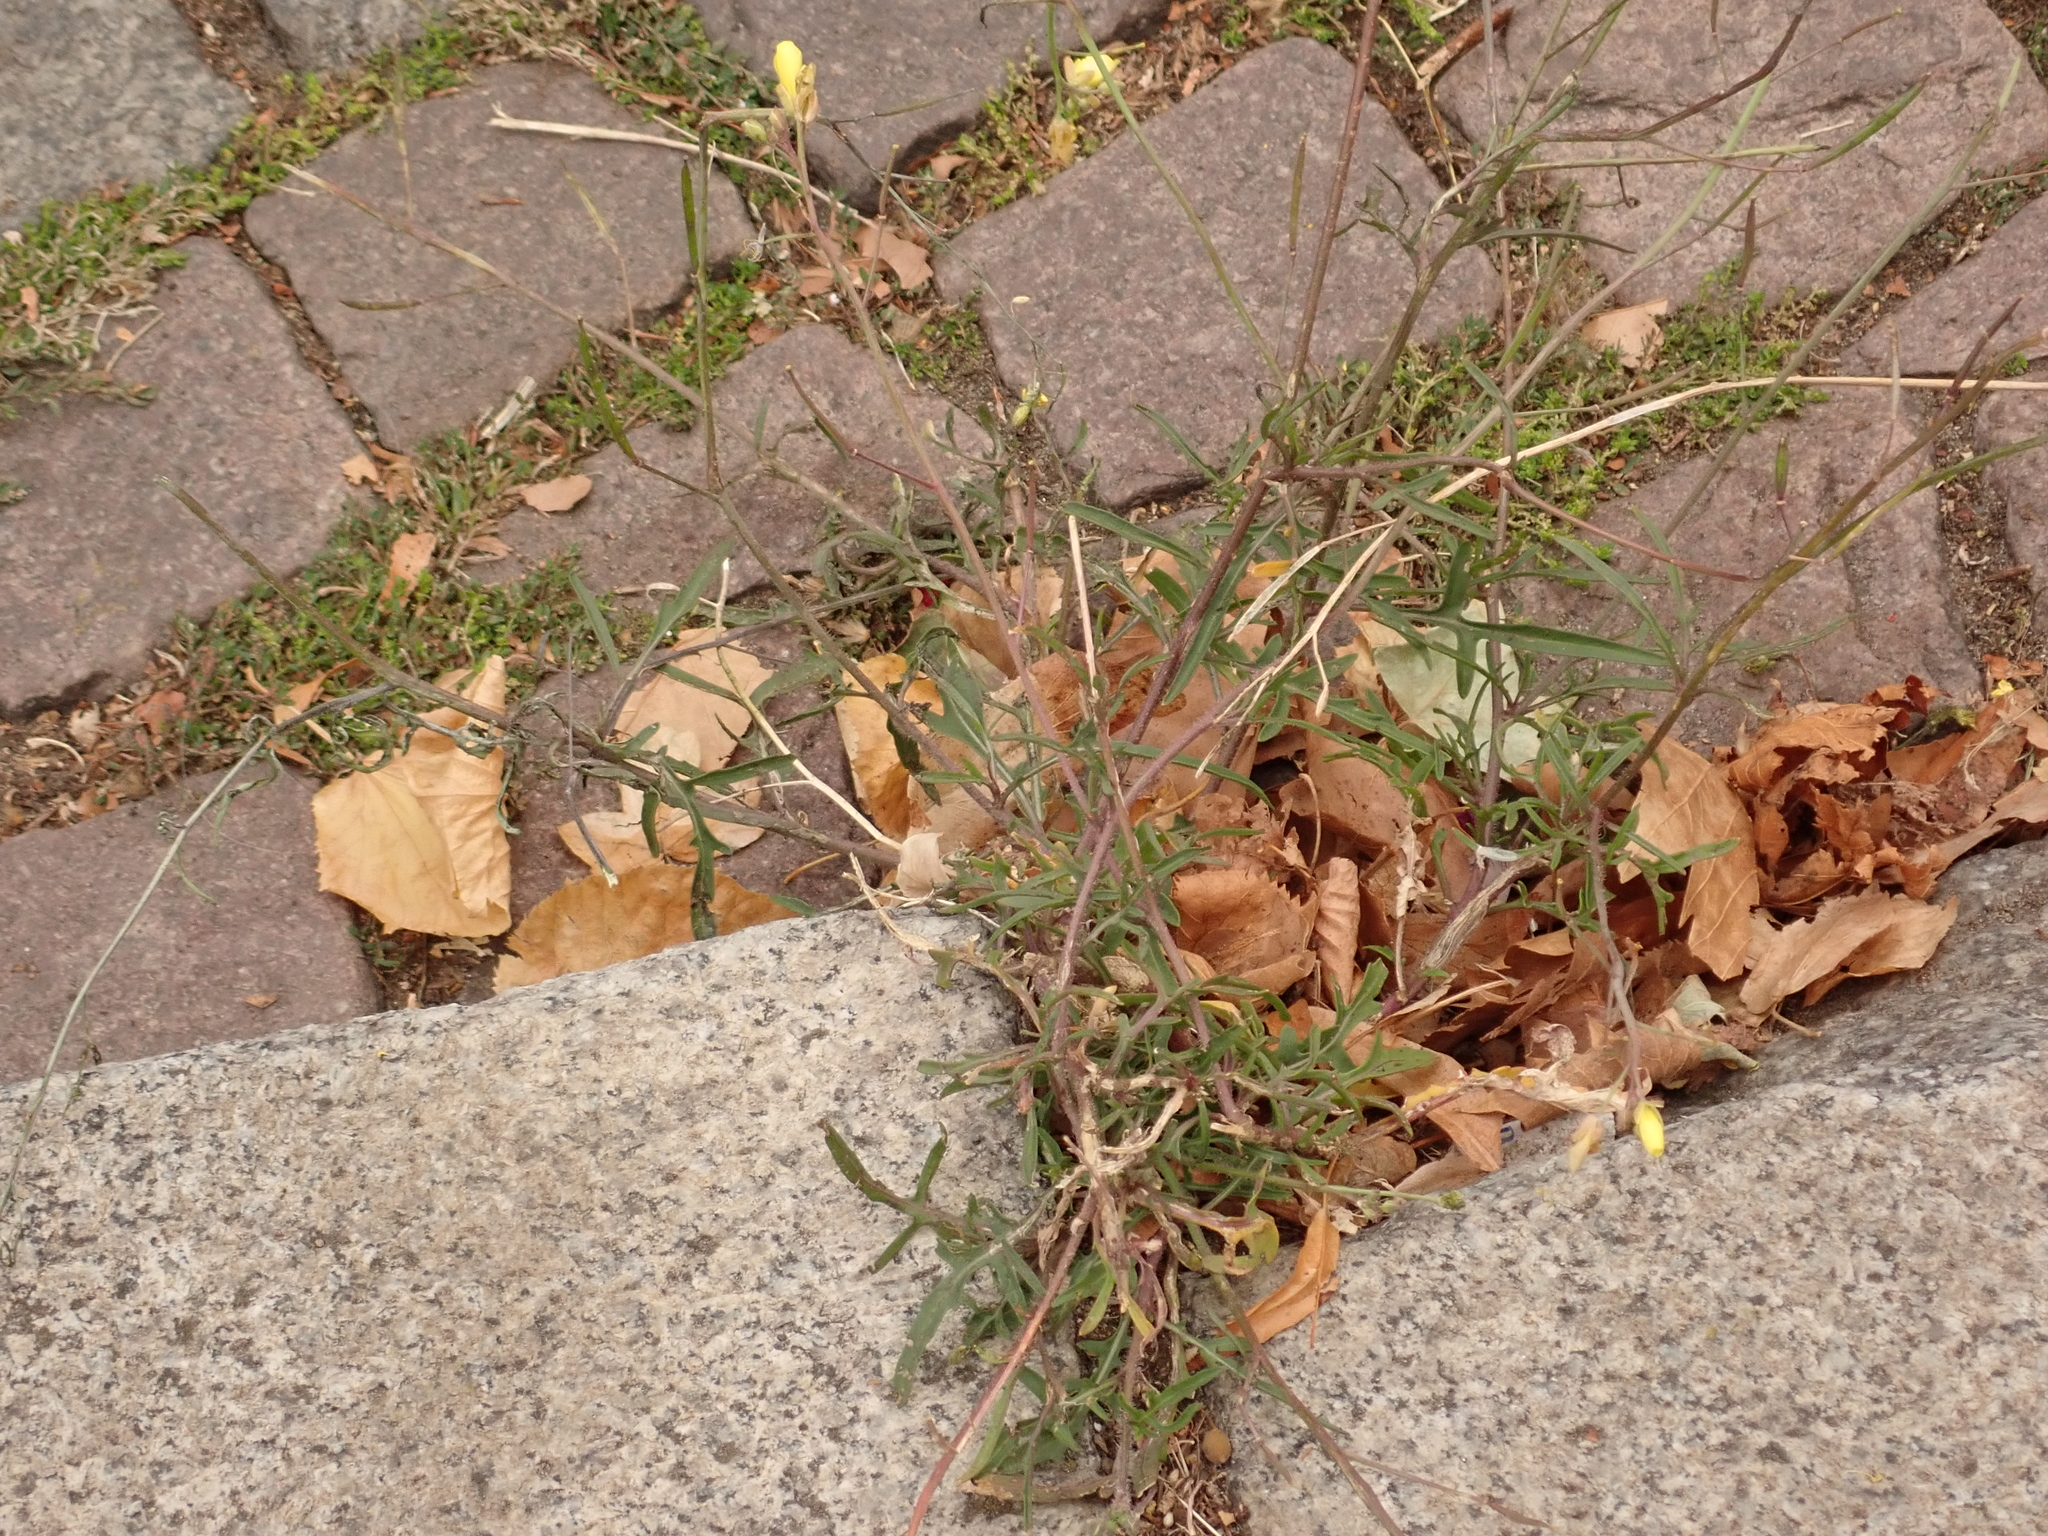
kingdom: Plantae
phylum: Tracheophyta
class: Magnoliopsida
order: Brassicales
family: Brassicaceae
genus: Diplotaxis
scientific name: Diplotaxis tenuifolia
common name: Perennial wall-rocket
